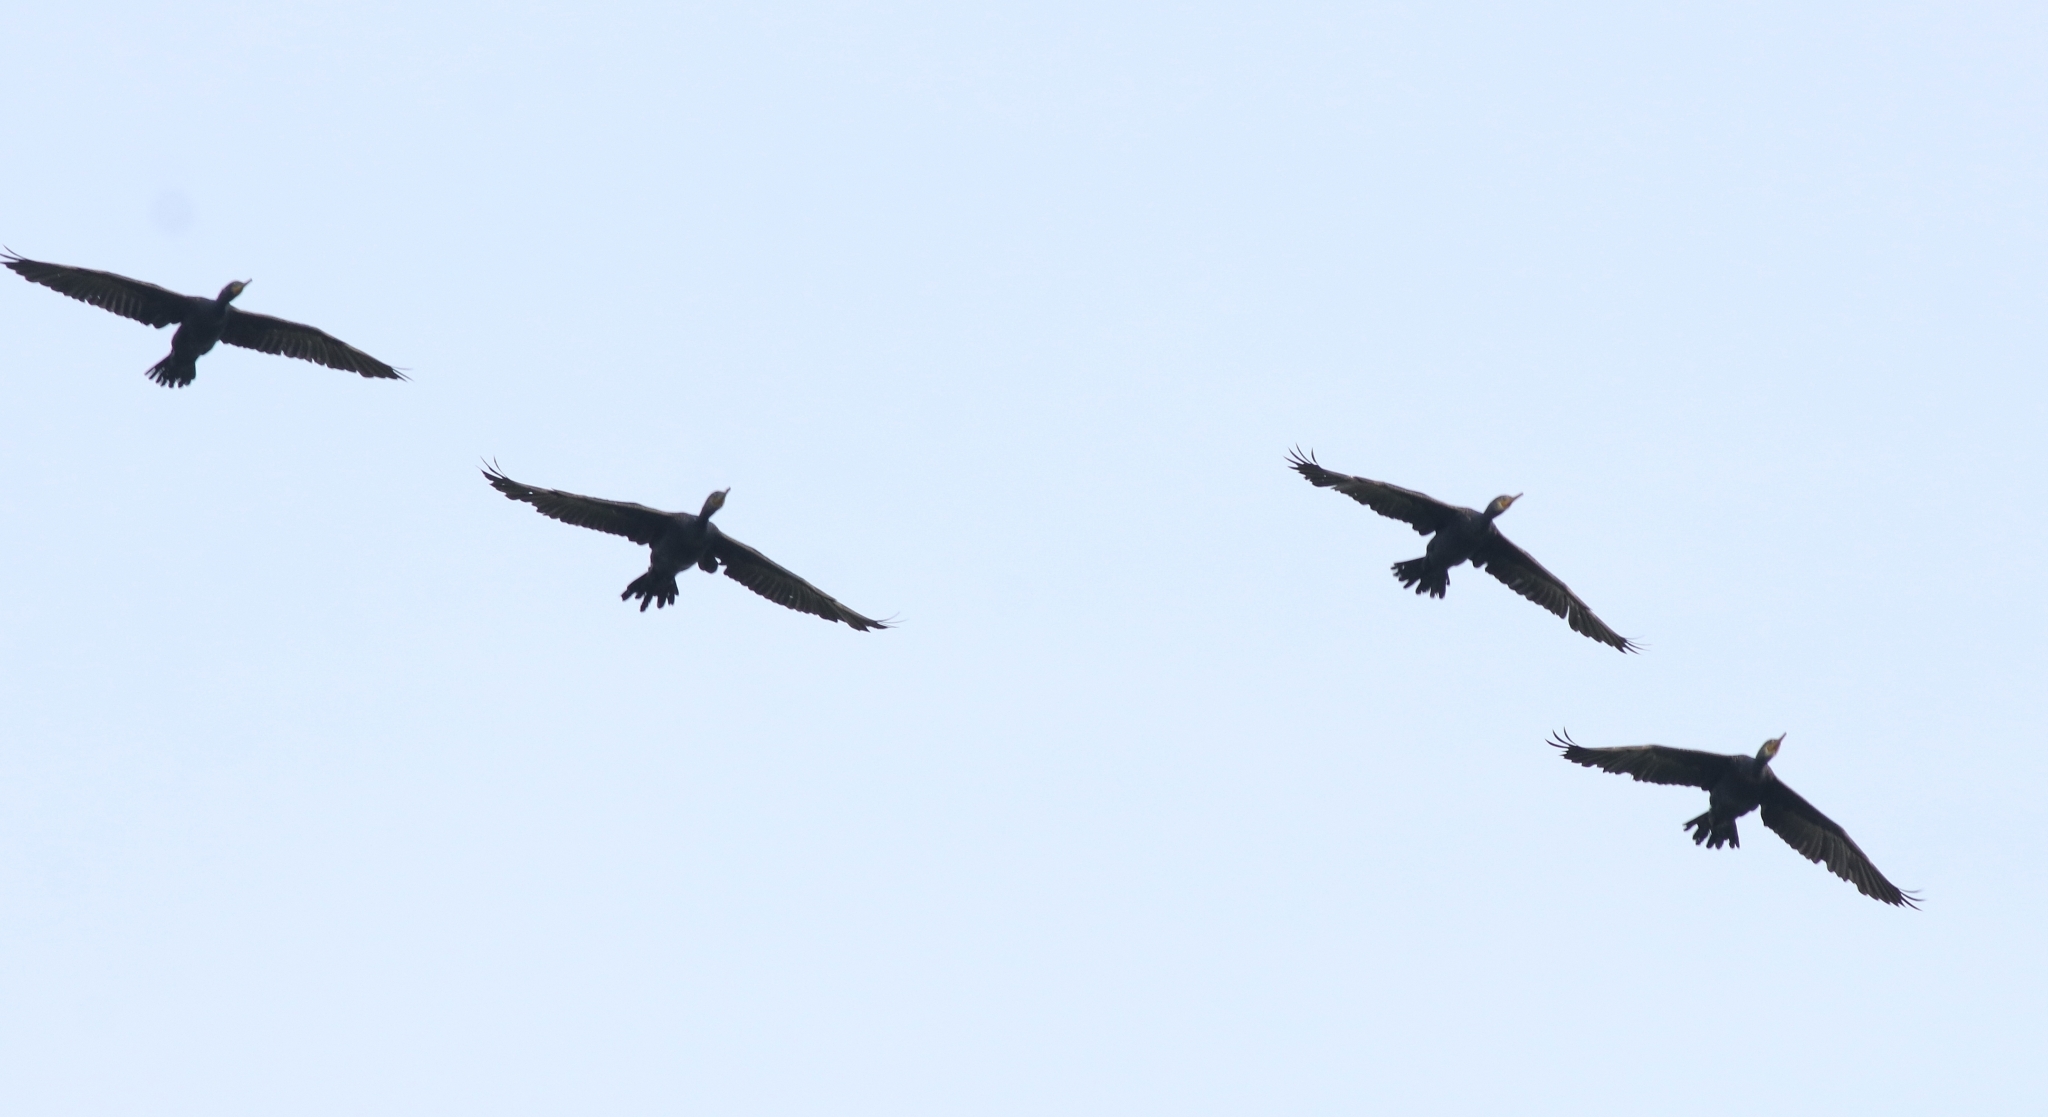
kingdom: Animalia
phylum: Chordata
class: Aves
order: Suliformes
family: Phalacrocoracidae
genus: Phalacrocorax
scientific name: Phalacrocorax fuscicollis
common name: Indian cormorant
